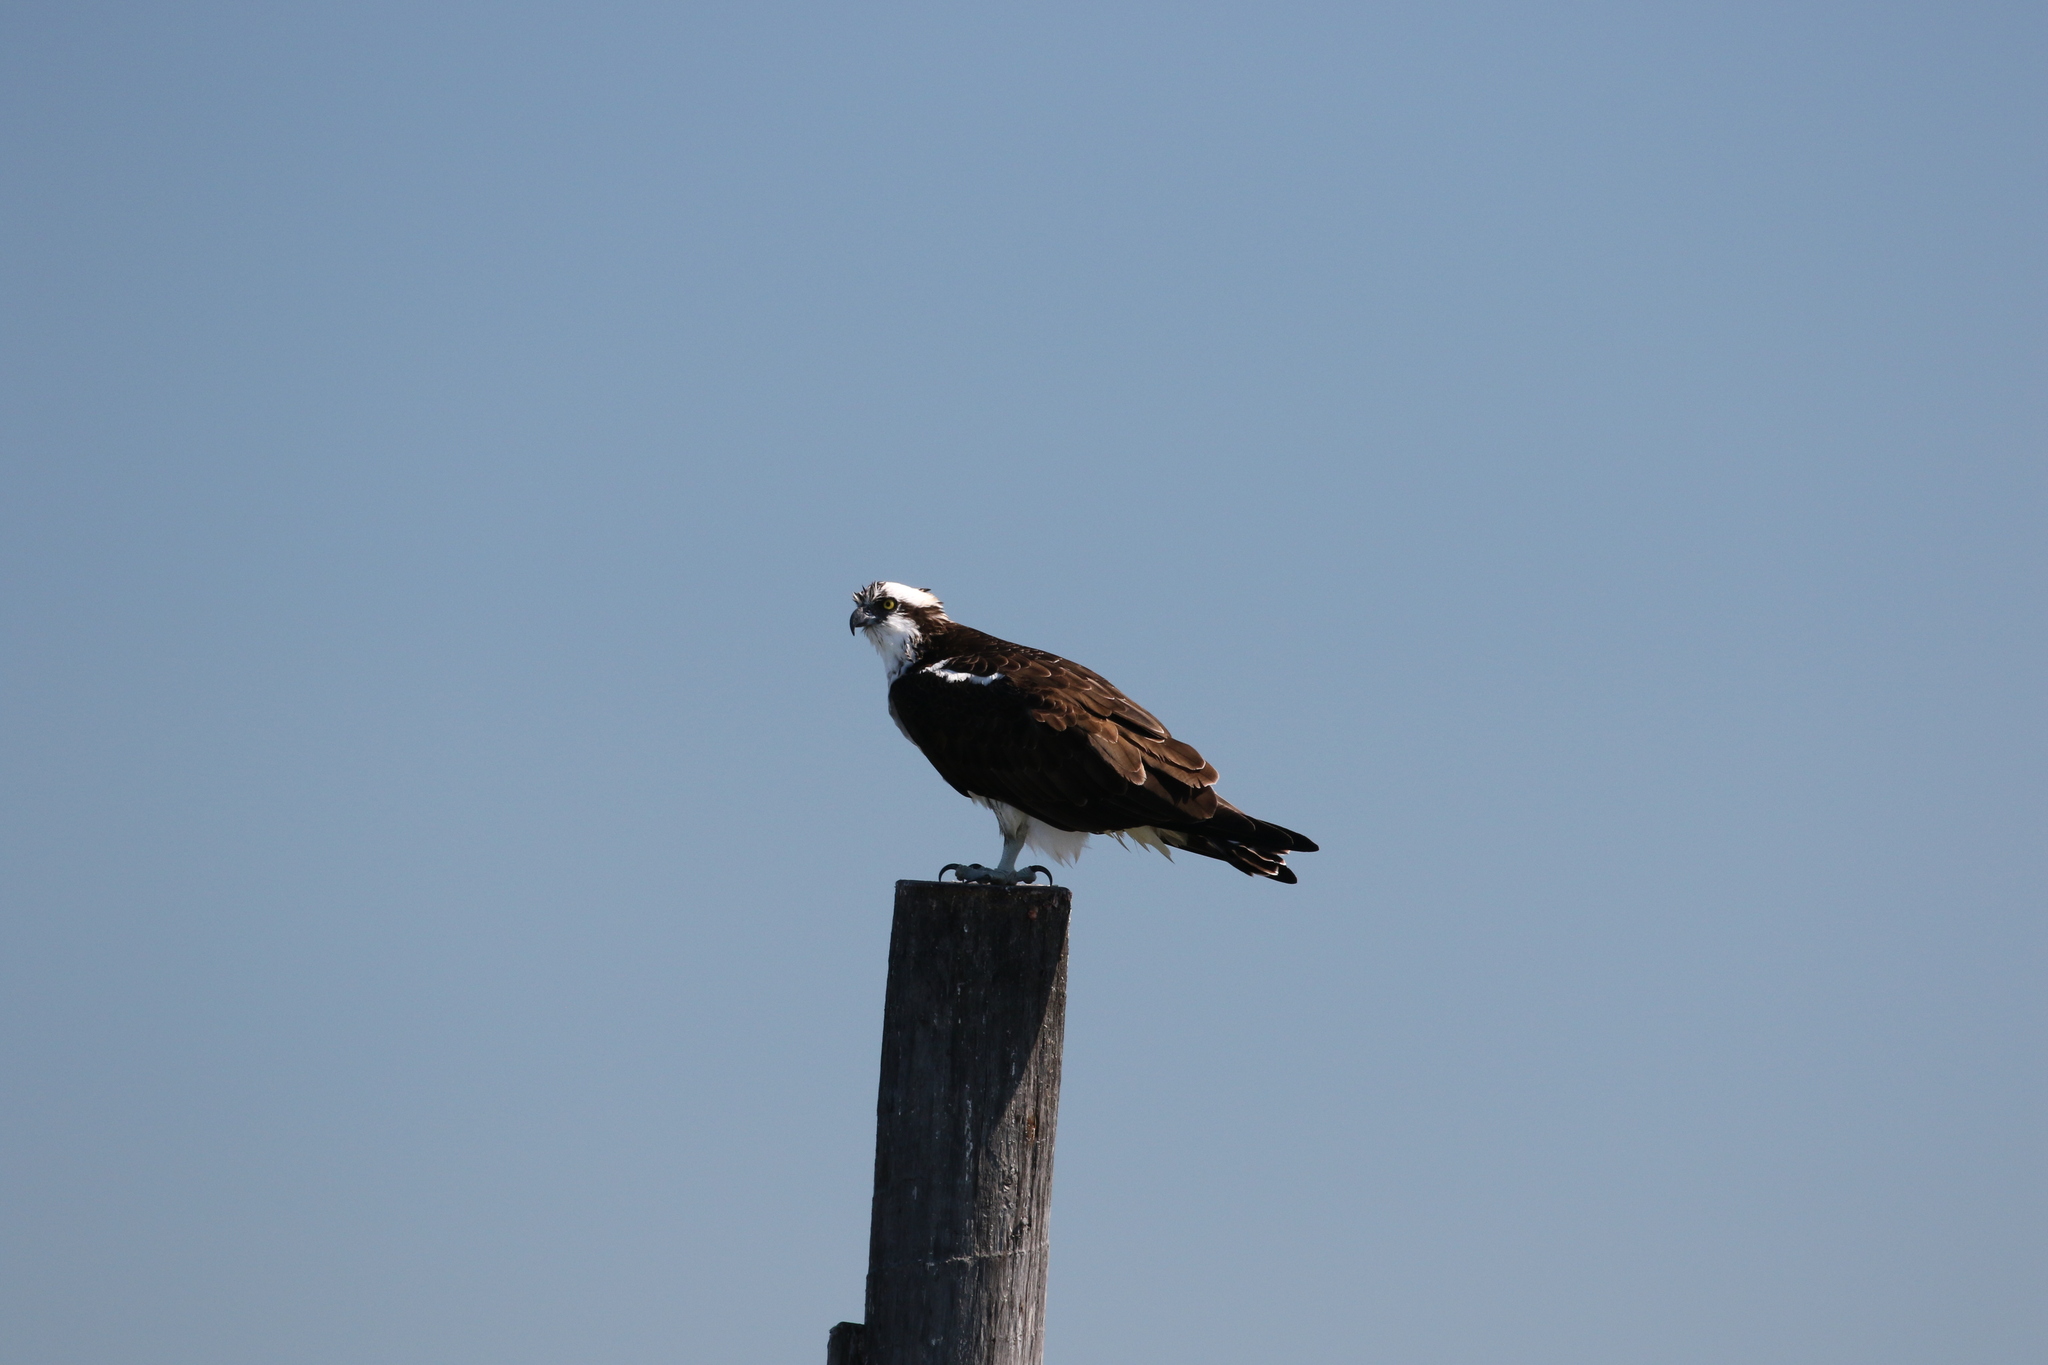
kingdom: Animalia
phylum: Chordata
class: Aves
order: Accipitriformes
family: Pandionidae
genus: Pandion
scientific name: Pandion haliaetus
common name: Osprey
